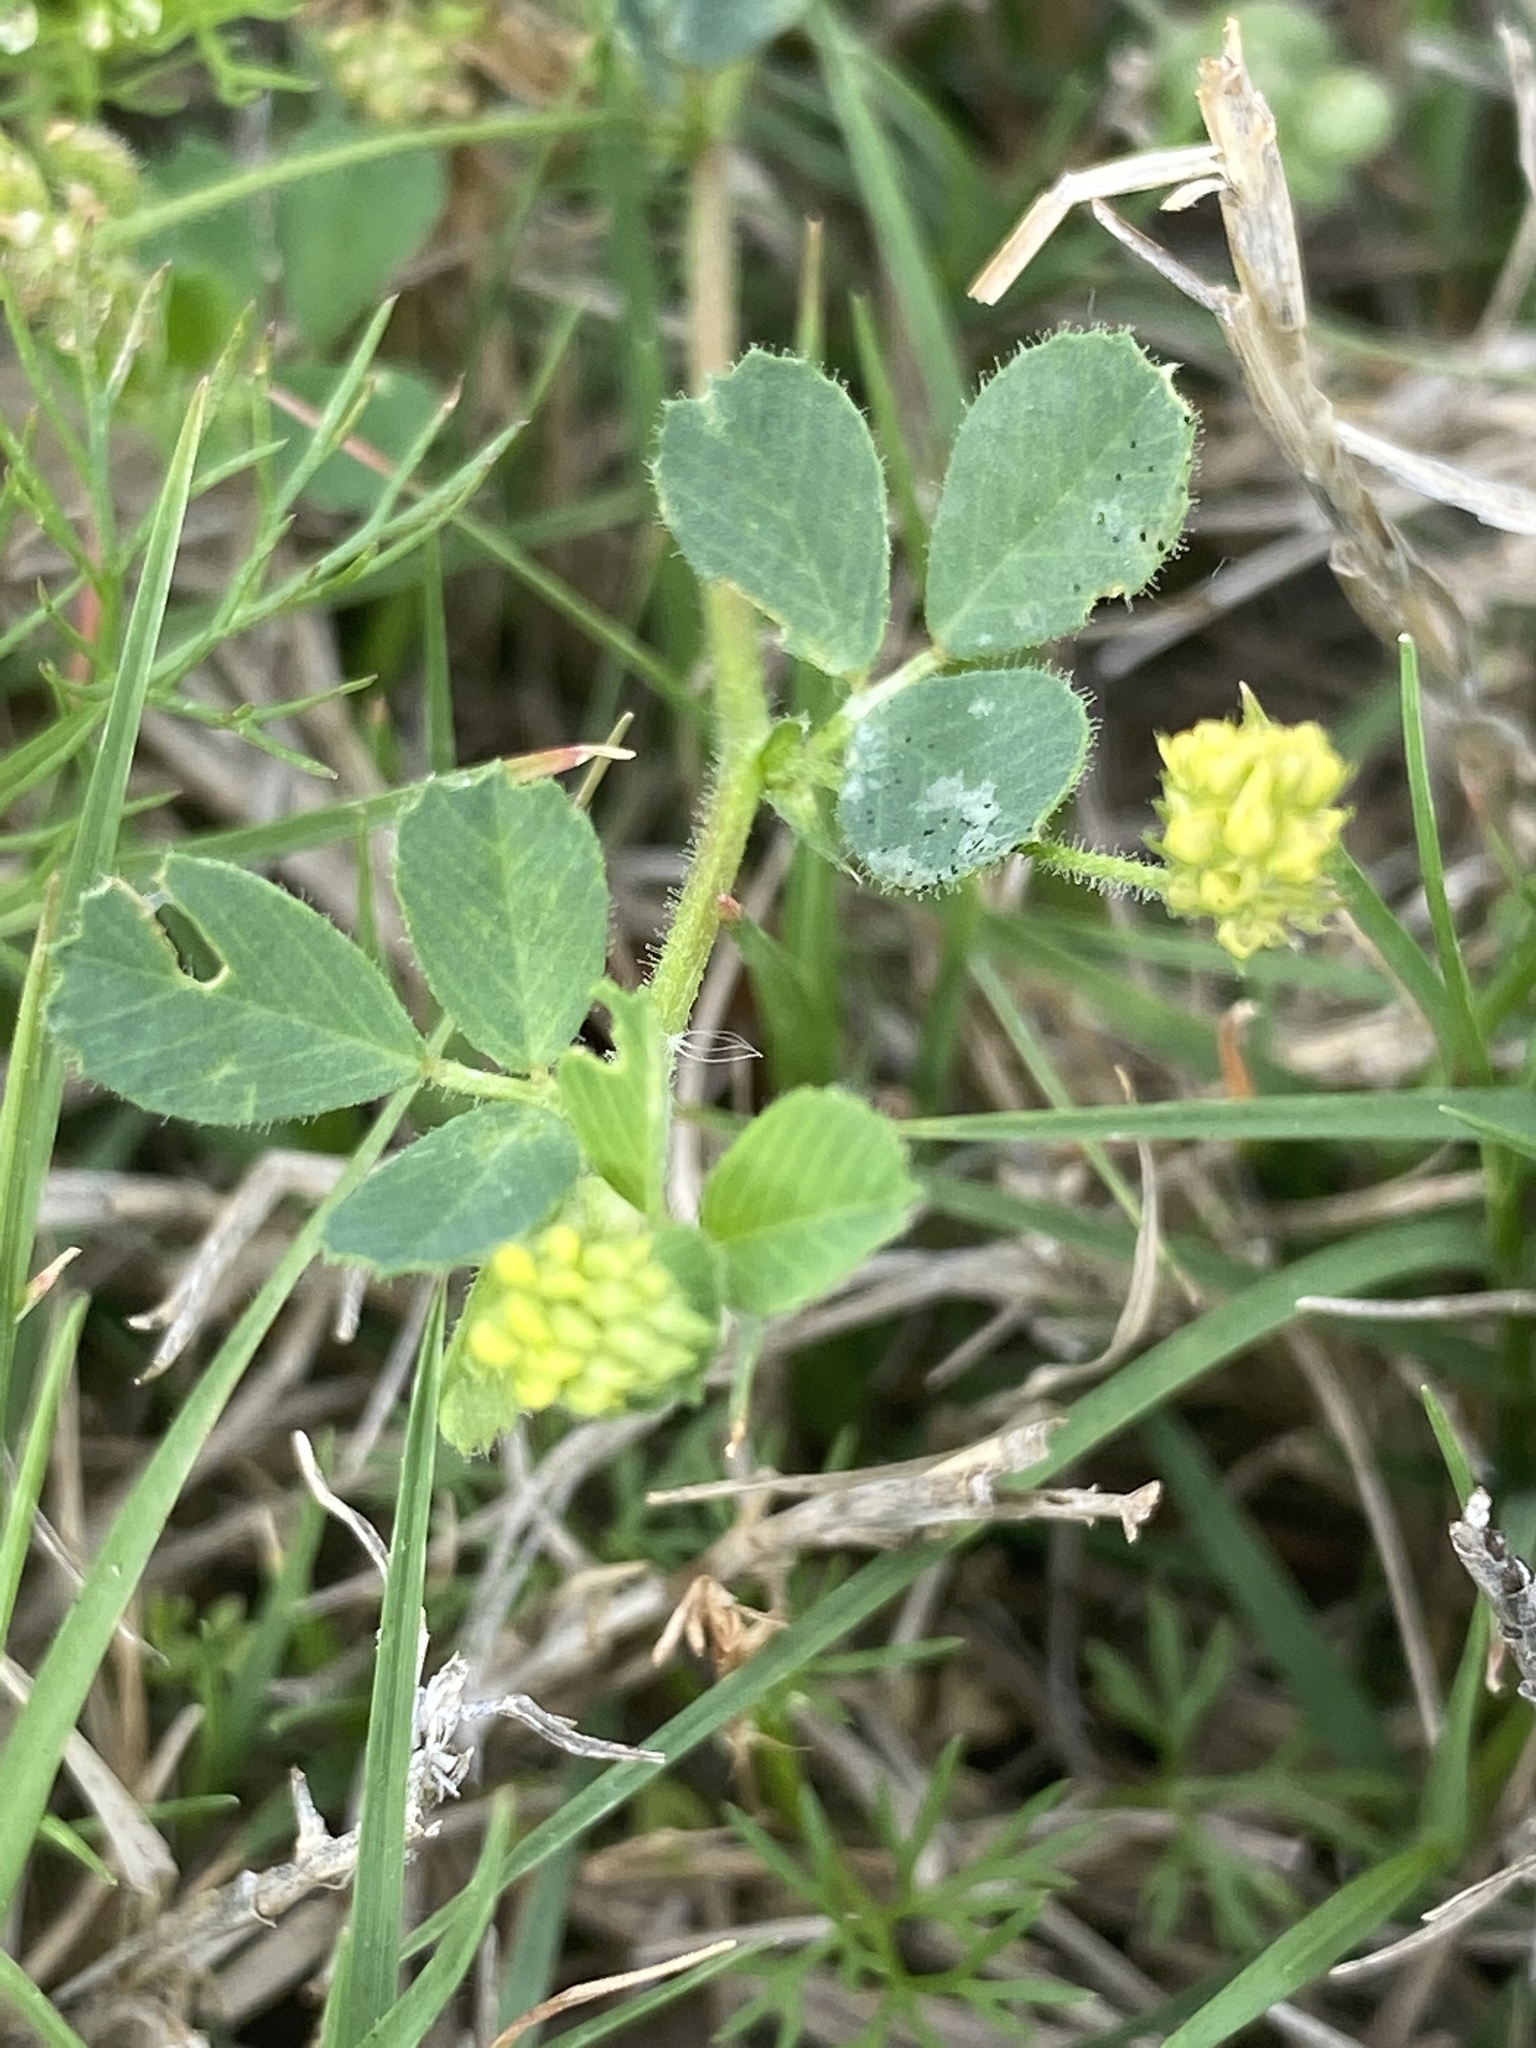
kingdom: Plantae
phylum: Tracheophyta
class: Magnoliopsida
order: Fabales
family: Fabaceae
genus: Medicago
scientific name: Medicago lupulina
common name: Black medick
